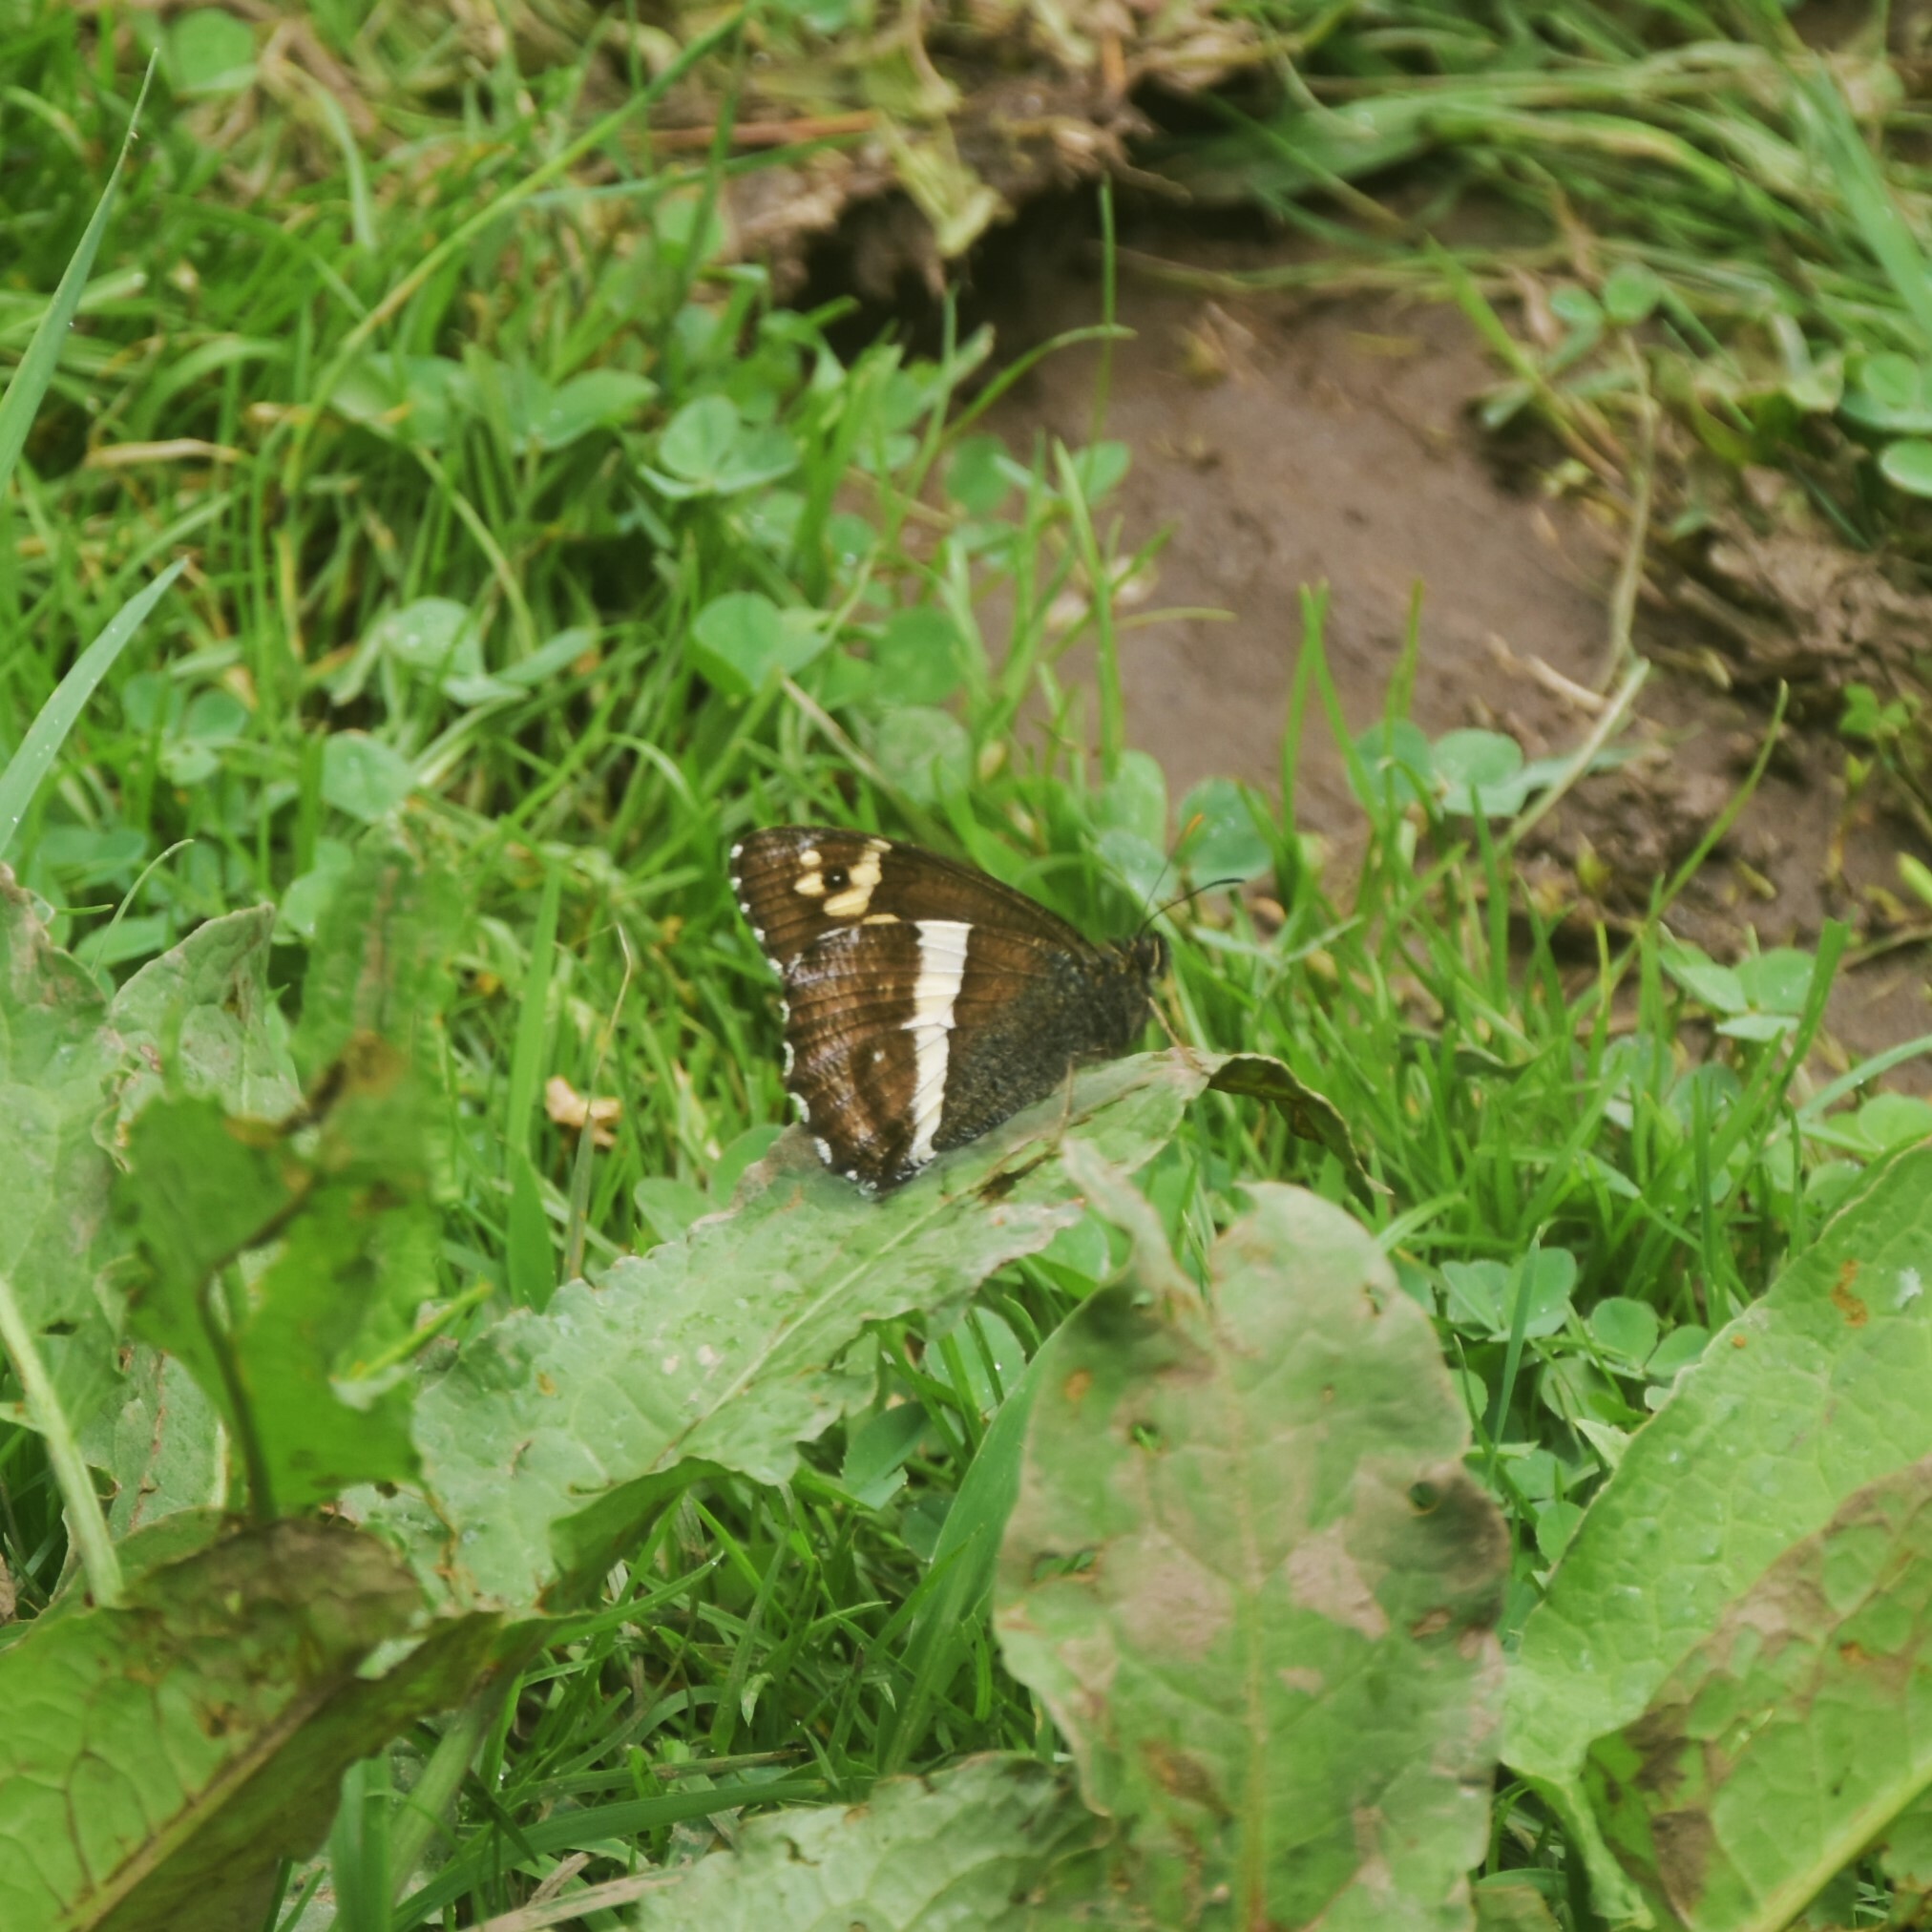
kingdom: Animalia
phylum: Arthropoda
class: Insecta
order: Lepidoptera
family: Nymphalidae
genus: Satyrus
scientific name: Satyrus Aulocera swaha
